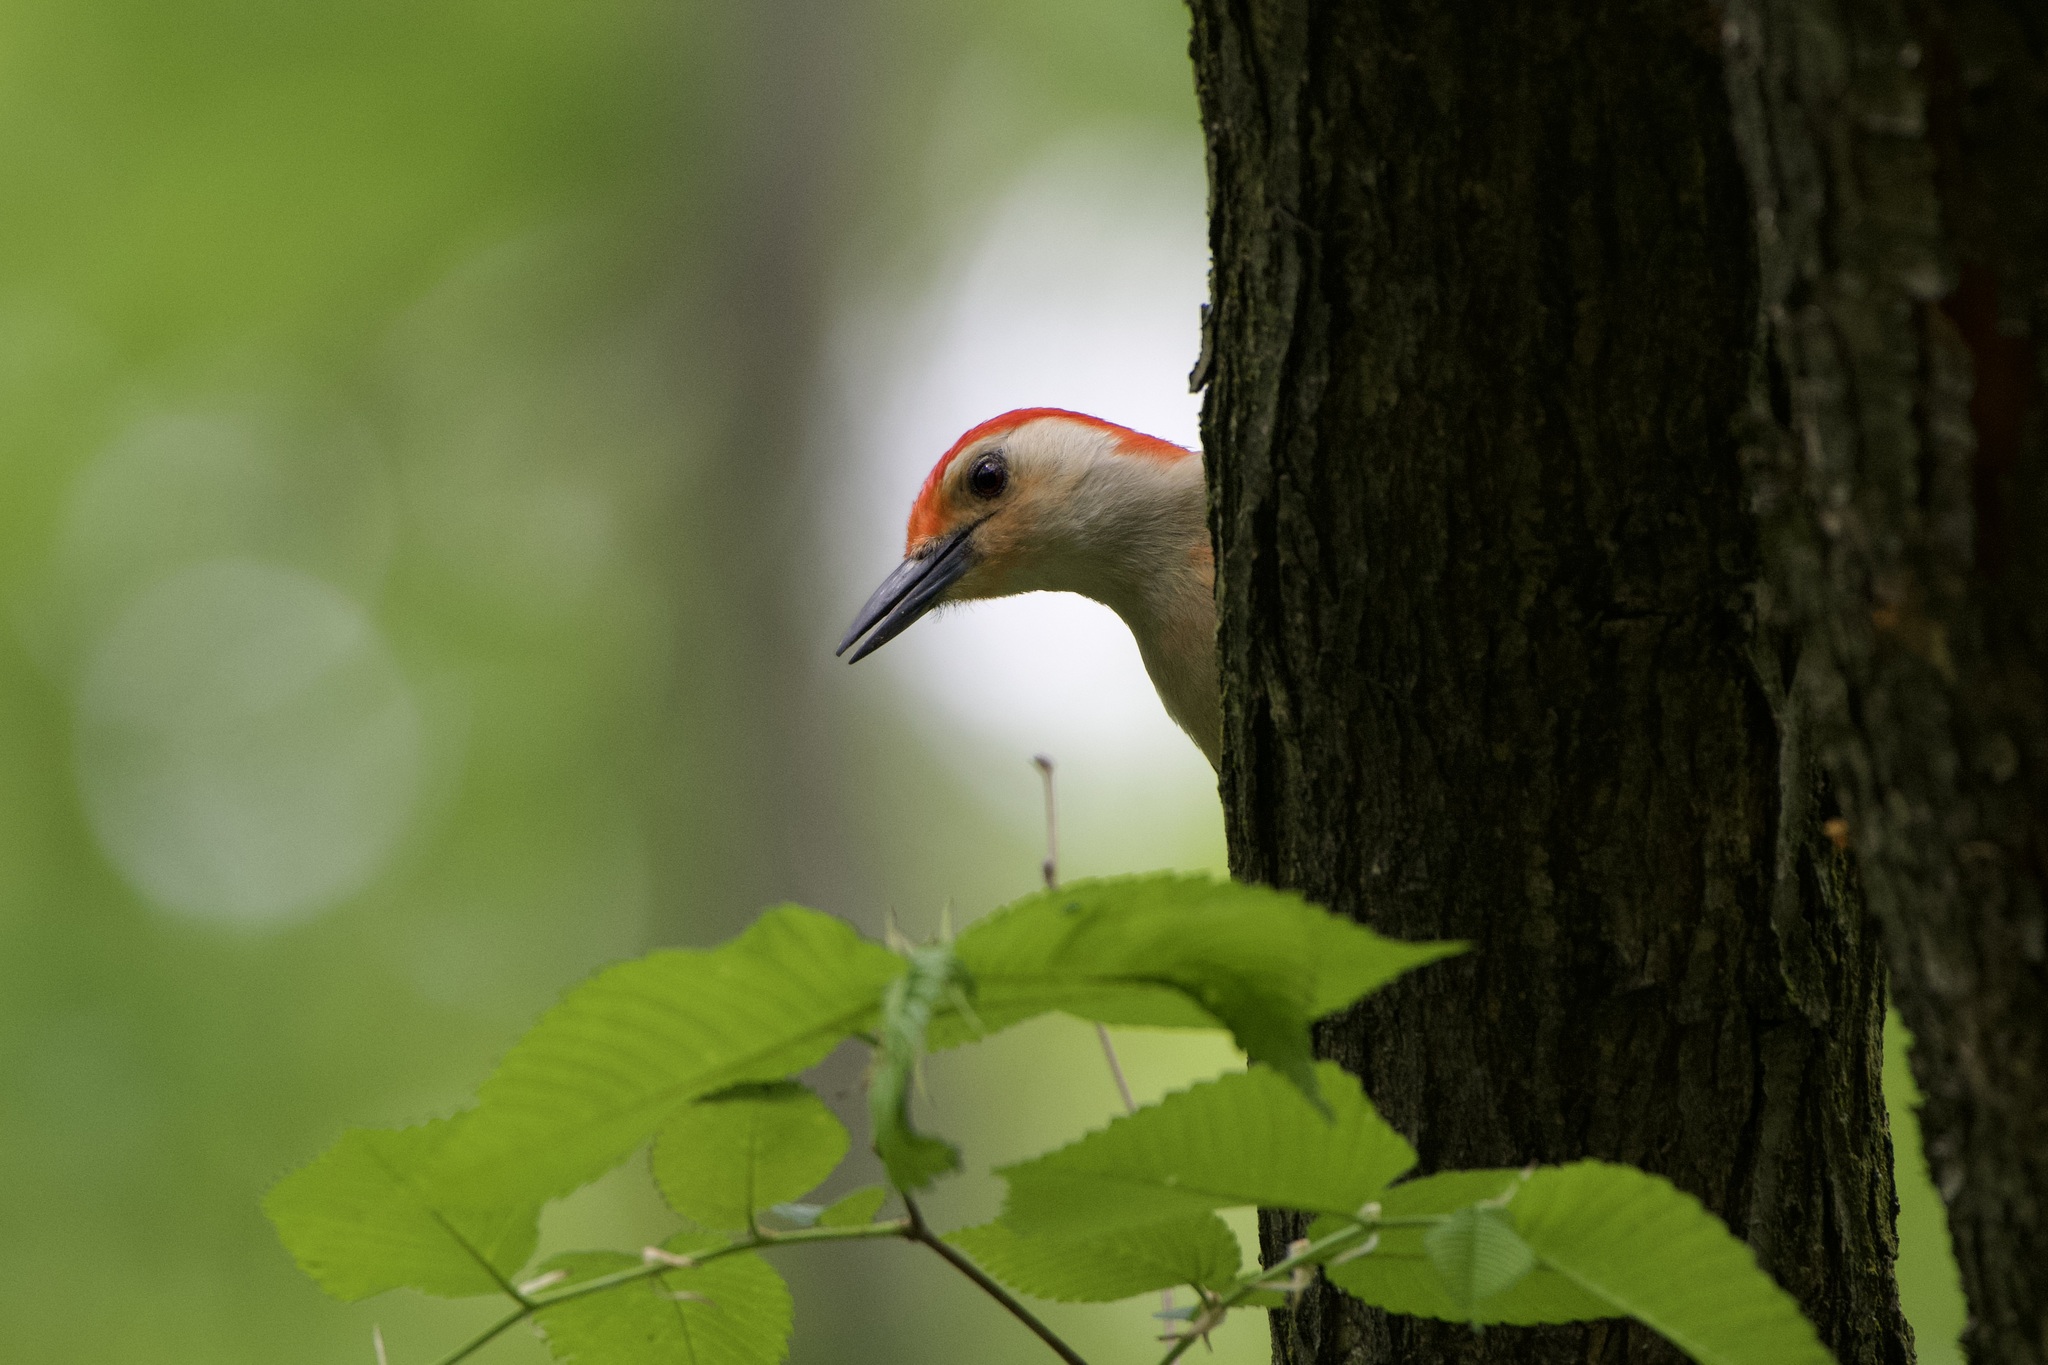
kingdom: Animalia
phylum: Chordata
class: Aves
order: Piciformes
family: Picidae
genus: Melanerpes
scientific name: Melanerpes carolinus
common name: Red-bellied woodpecker
